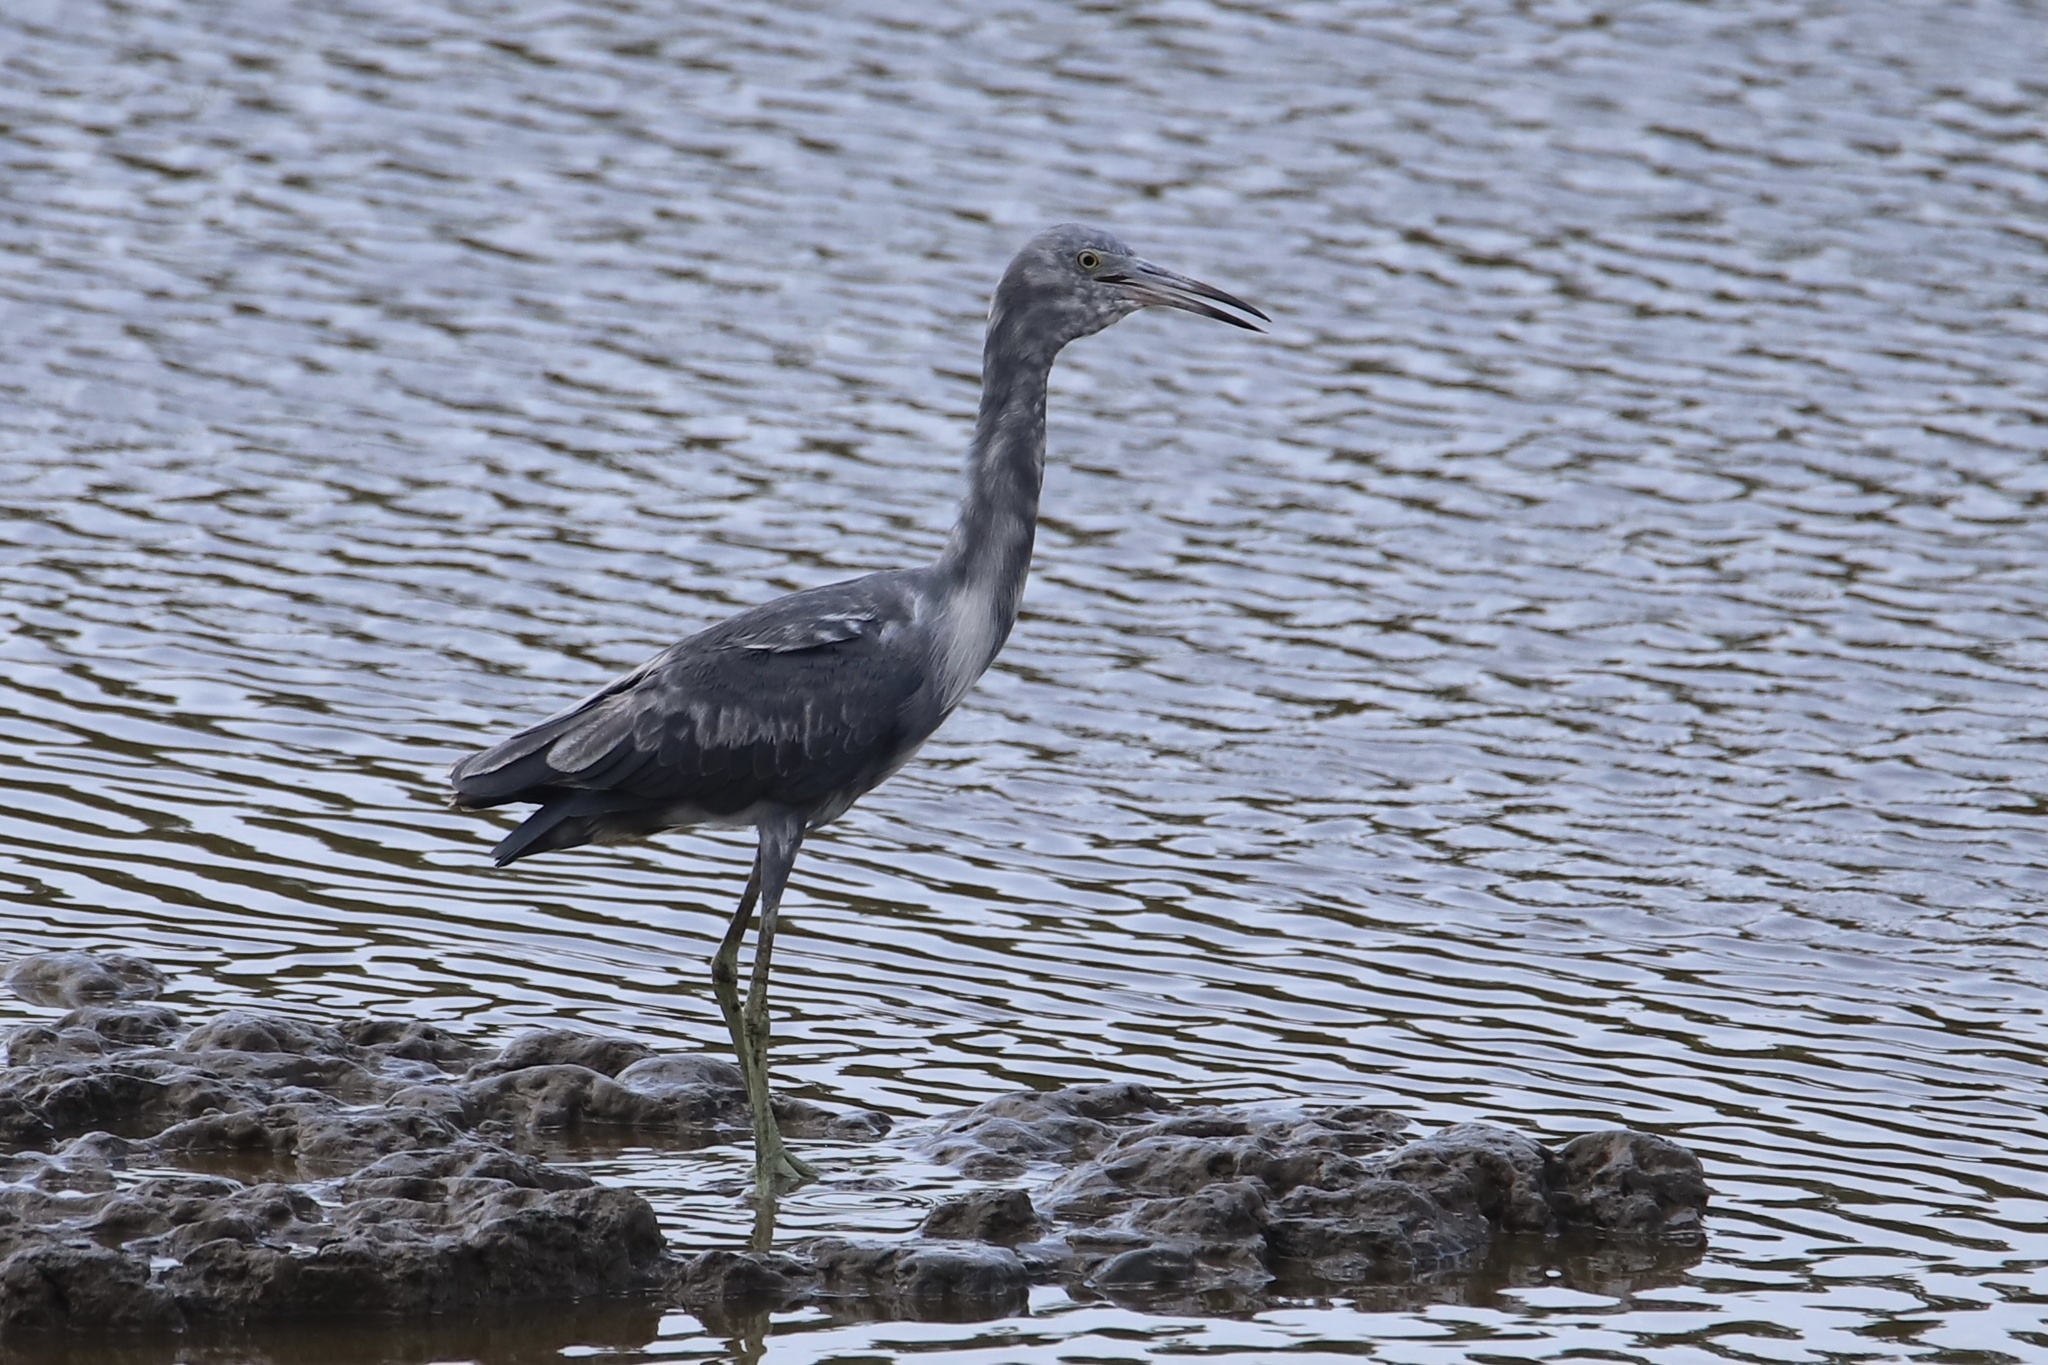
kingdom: Animalia
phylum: Chordata
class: Aves
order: Pelecaniformes
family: Ardeidae
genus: Egretta
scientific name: Egretta caerulea
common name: Little blue heron
